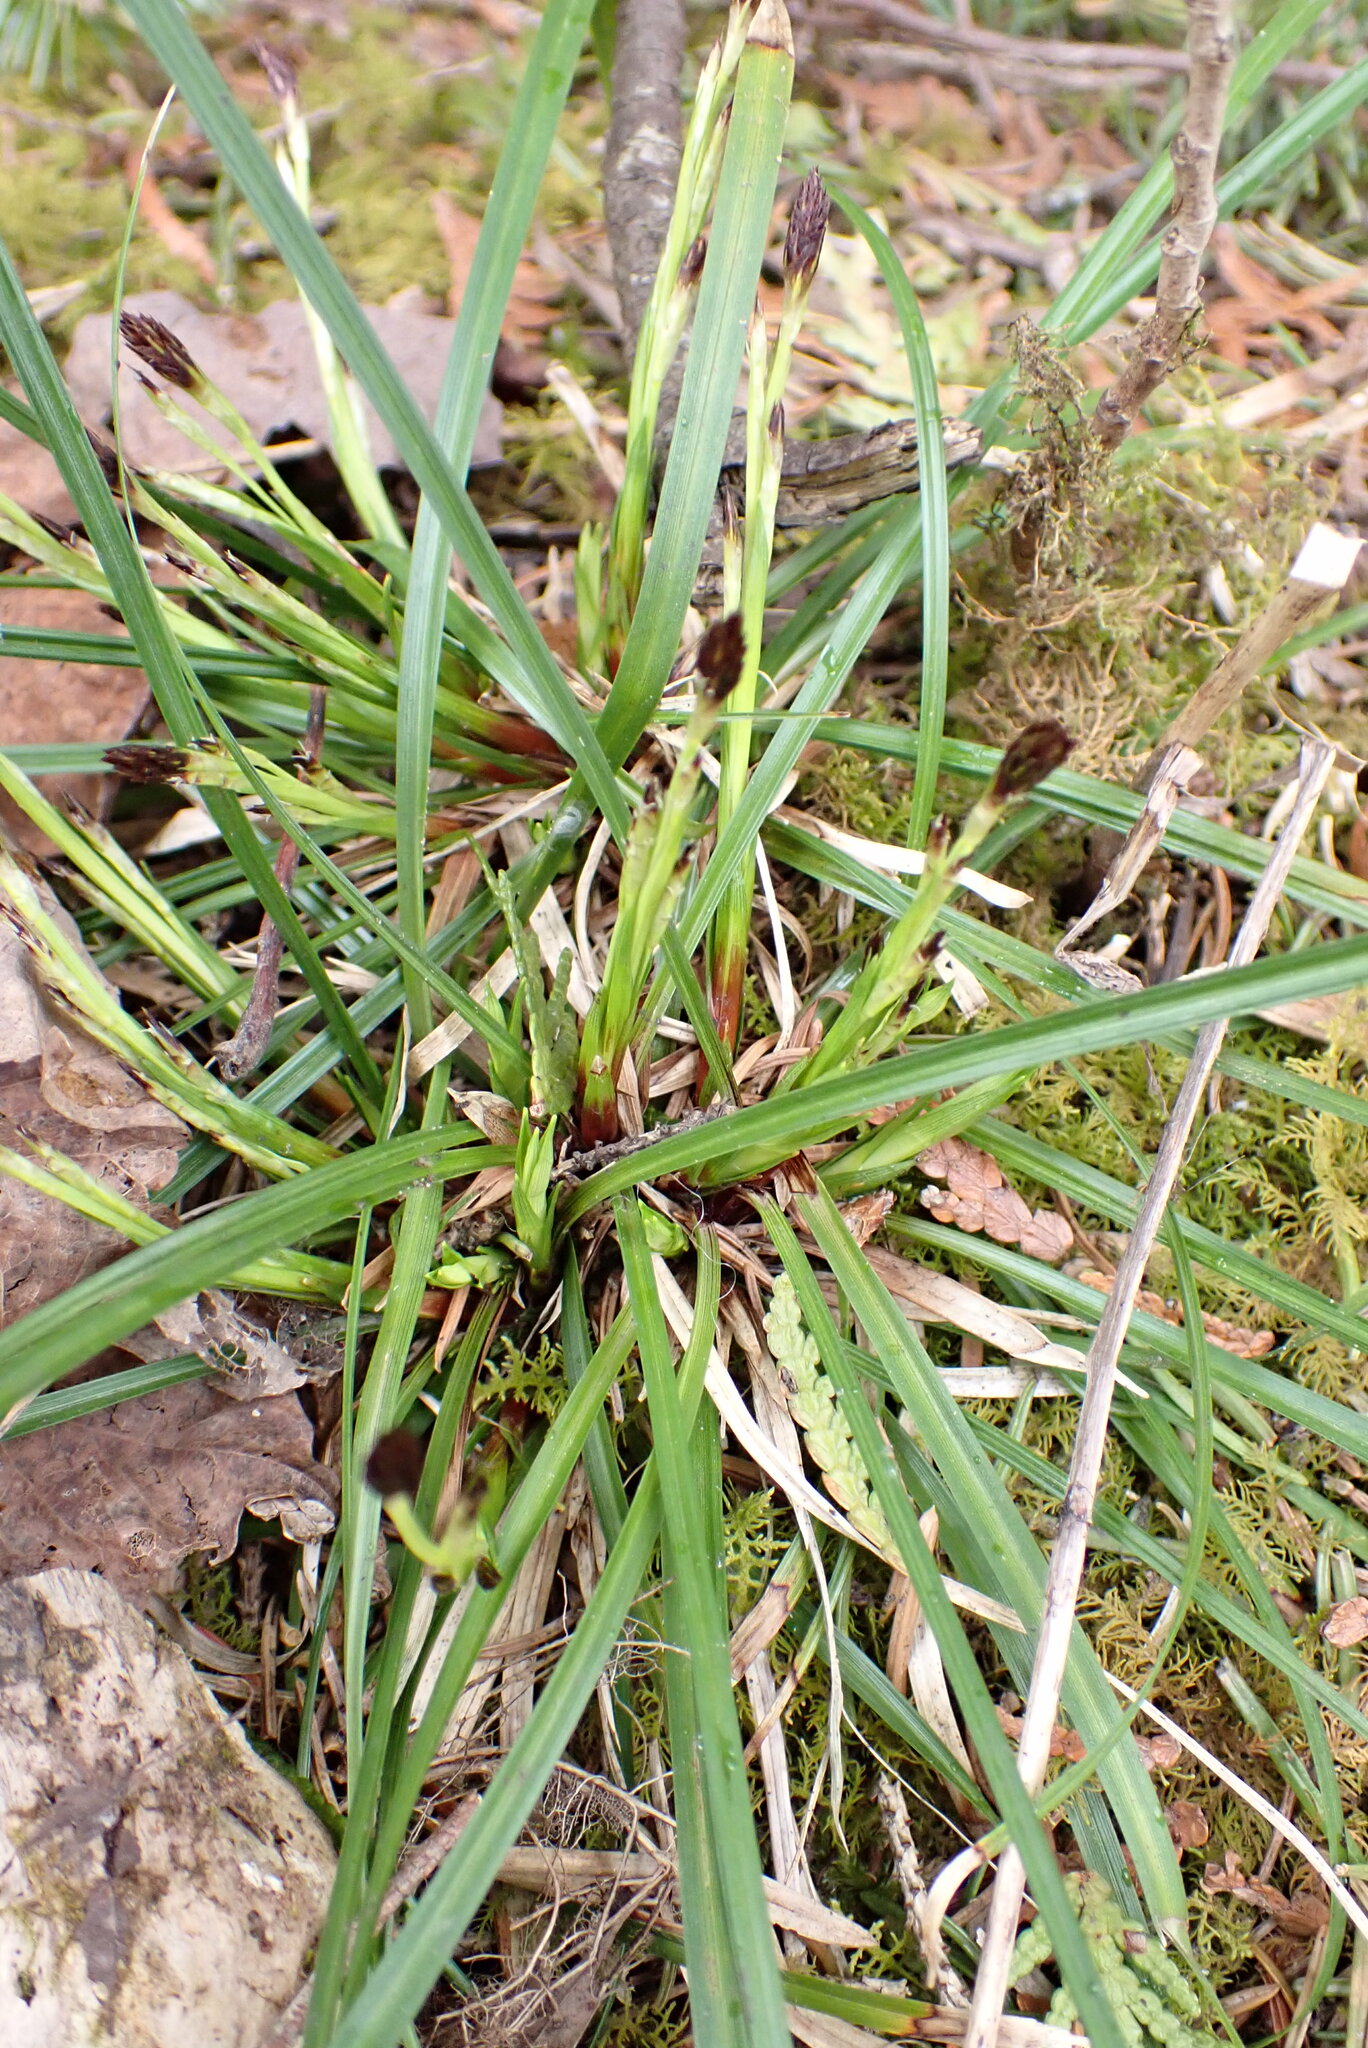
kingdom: Plantae
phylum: Tracheophyta
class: Liliopsida
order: Poales
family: Cyperaceae
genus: Carex
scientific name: Carex pedunculata
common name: Pedunculate sedge
